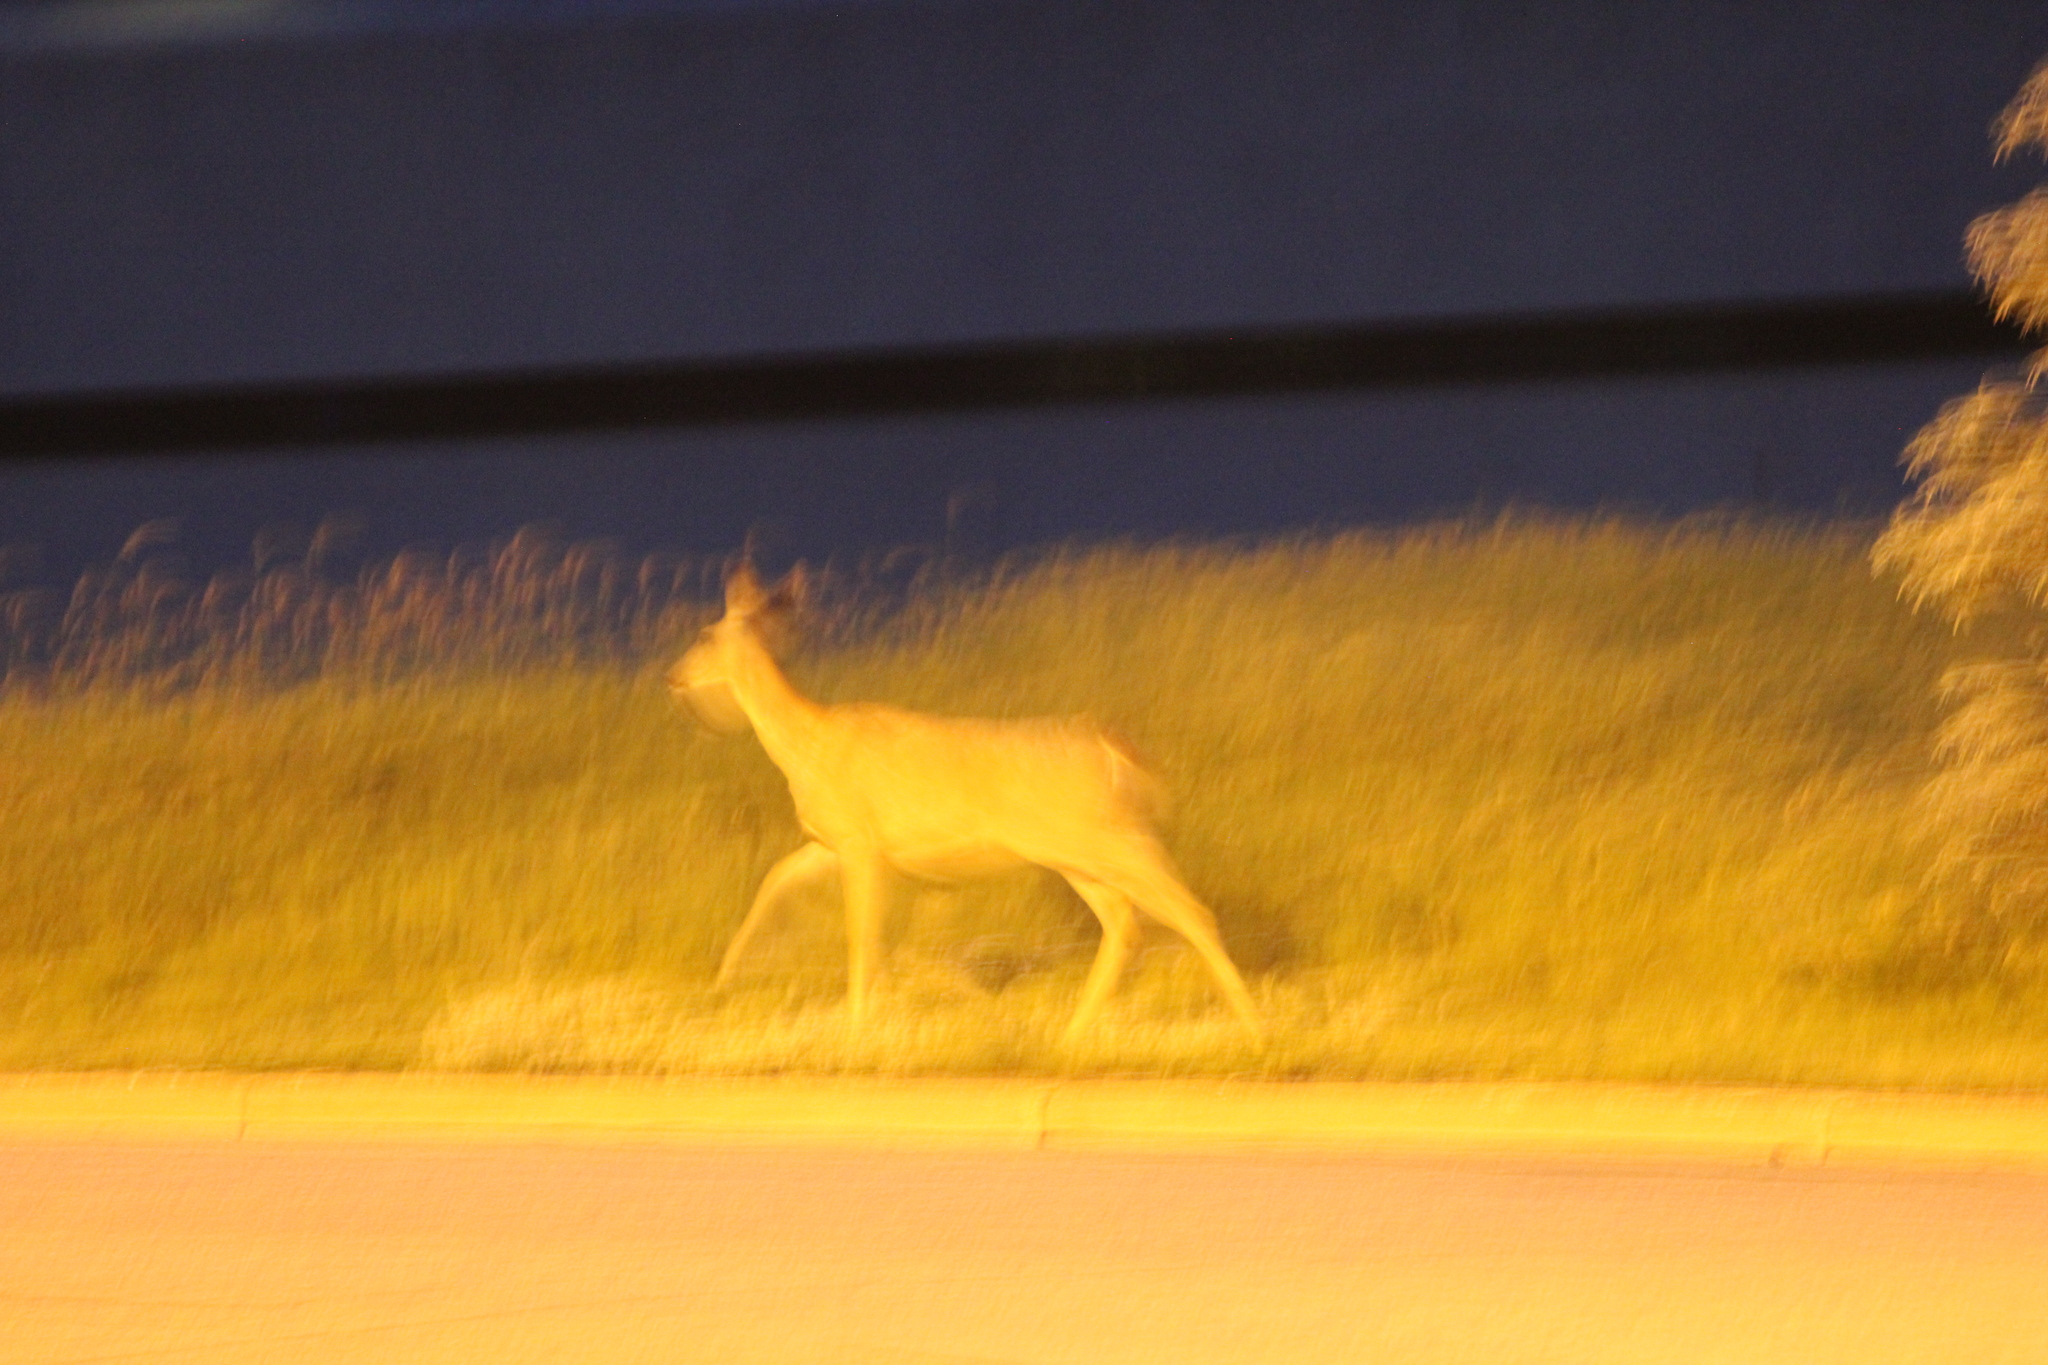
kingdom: Animalia
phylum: Chordata
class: Mammalia
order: Artiodactyla
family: Cervidae
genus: Odocoileus
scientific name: Odocoileus hemionus
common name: Mule deer
